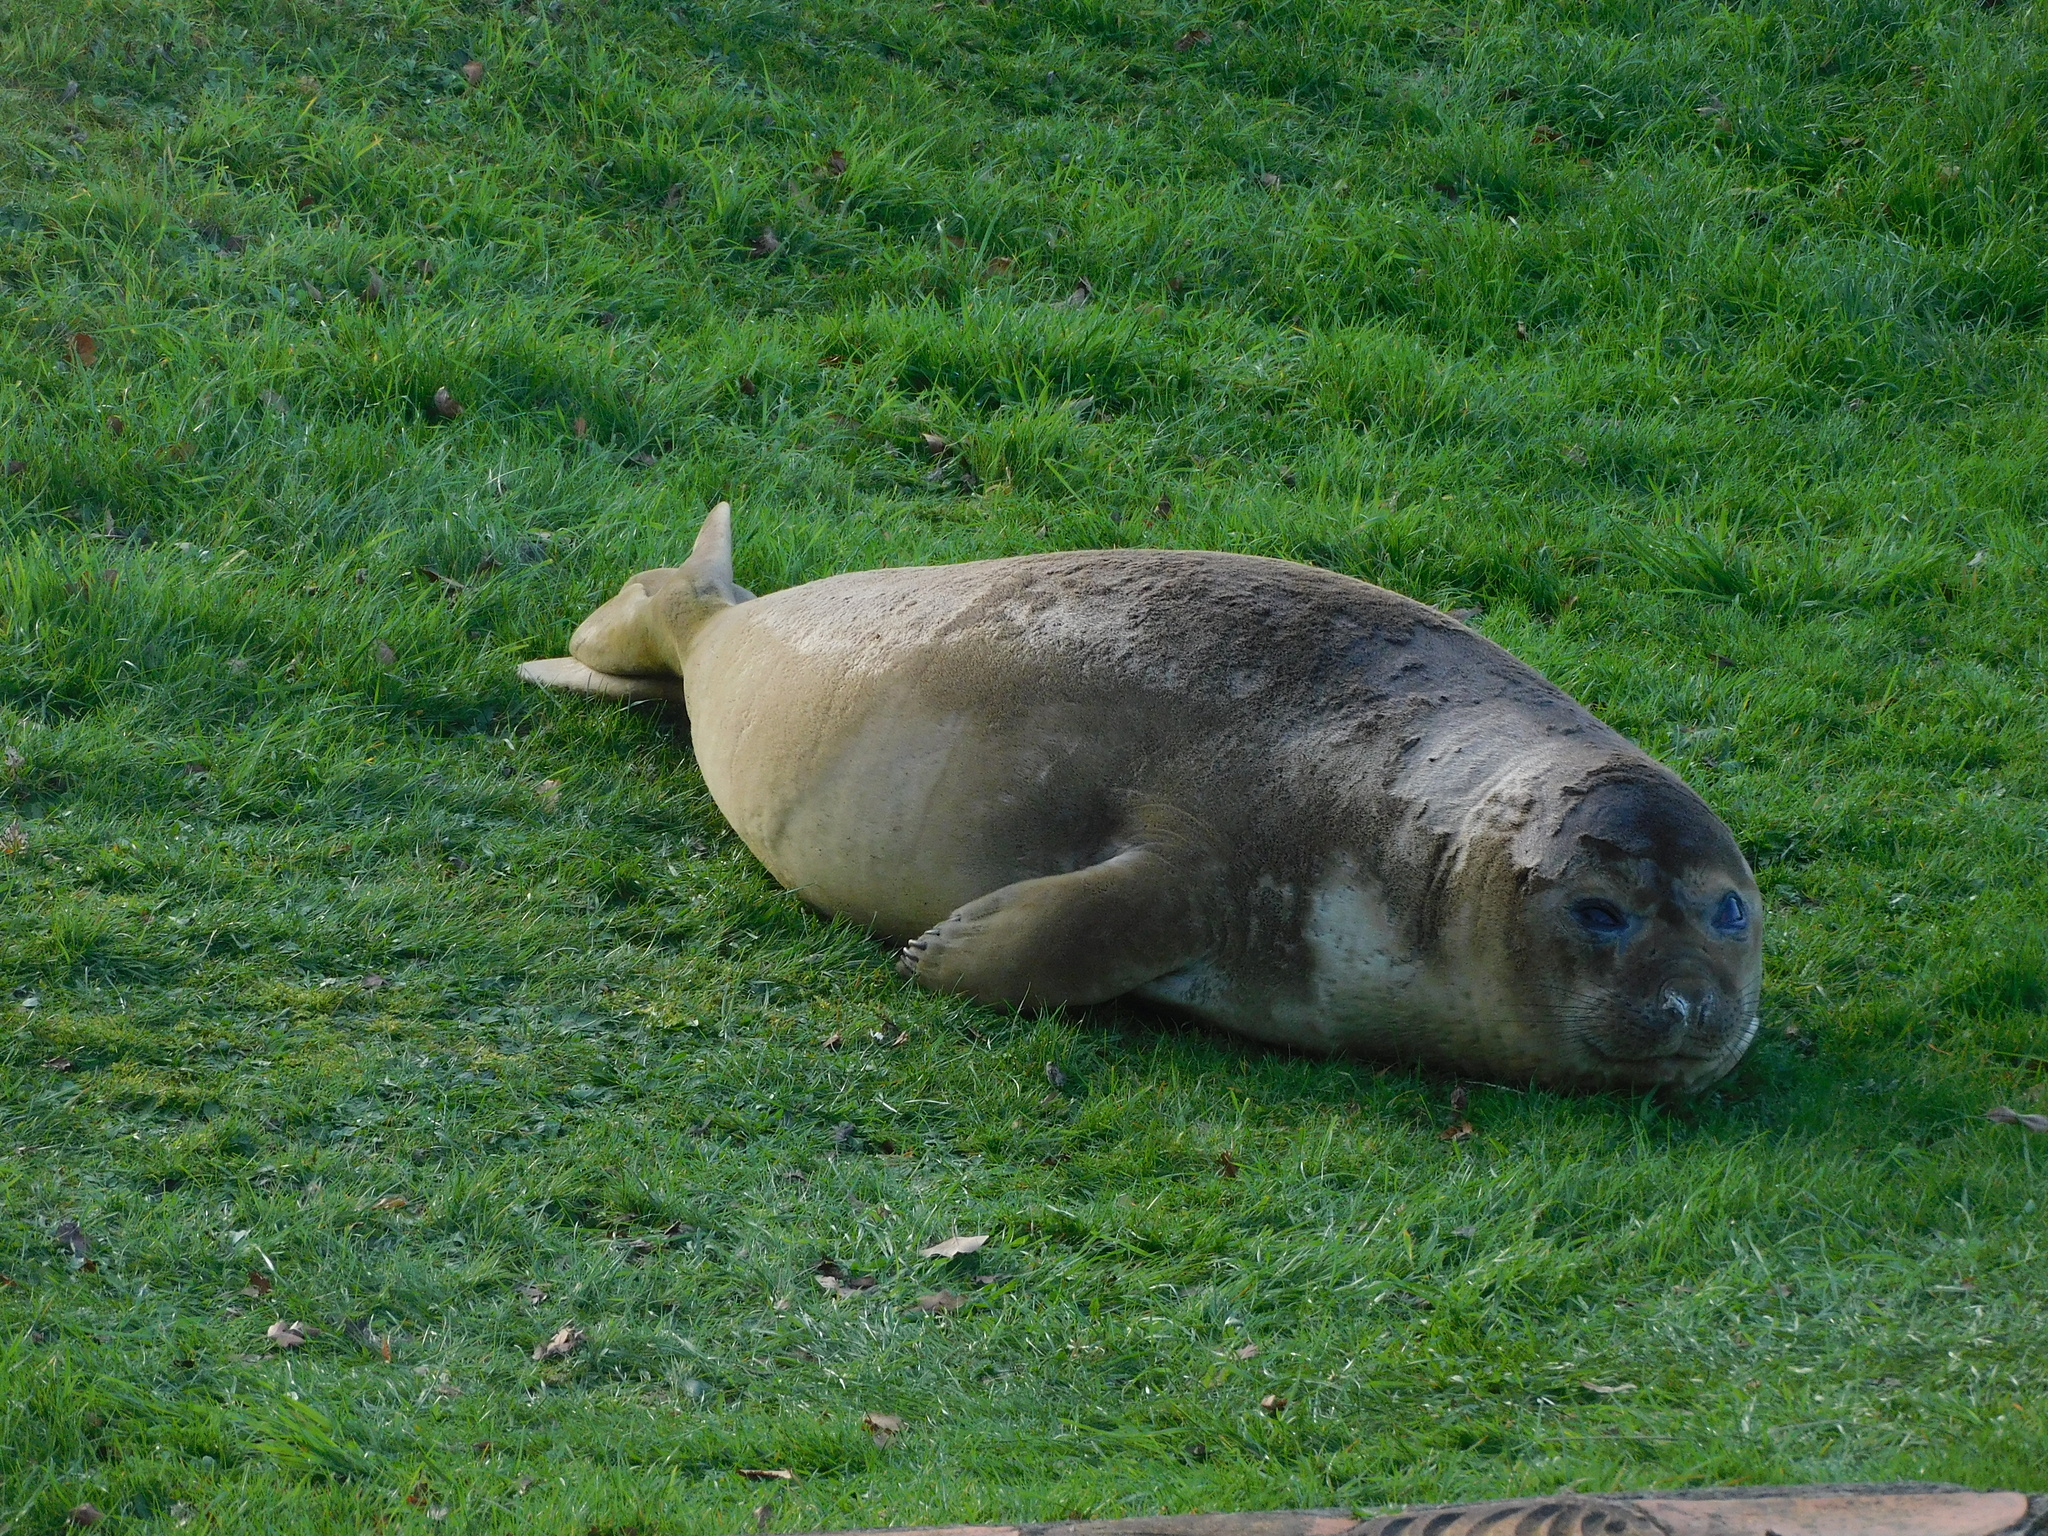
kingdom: Animalia
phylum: Chordata
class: Mammalia
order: Carnivora
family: Phocidae
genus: Mirounga
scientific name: Mirounga leonina
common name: Southern elephant seal
